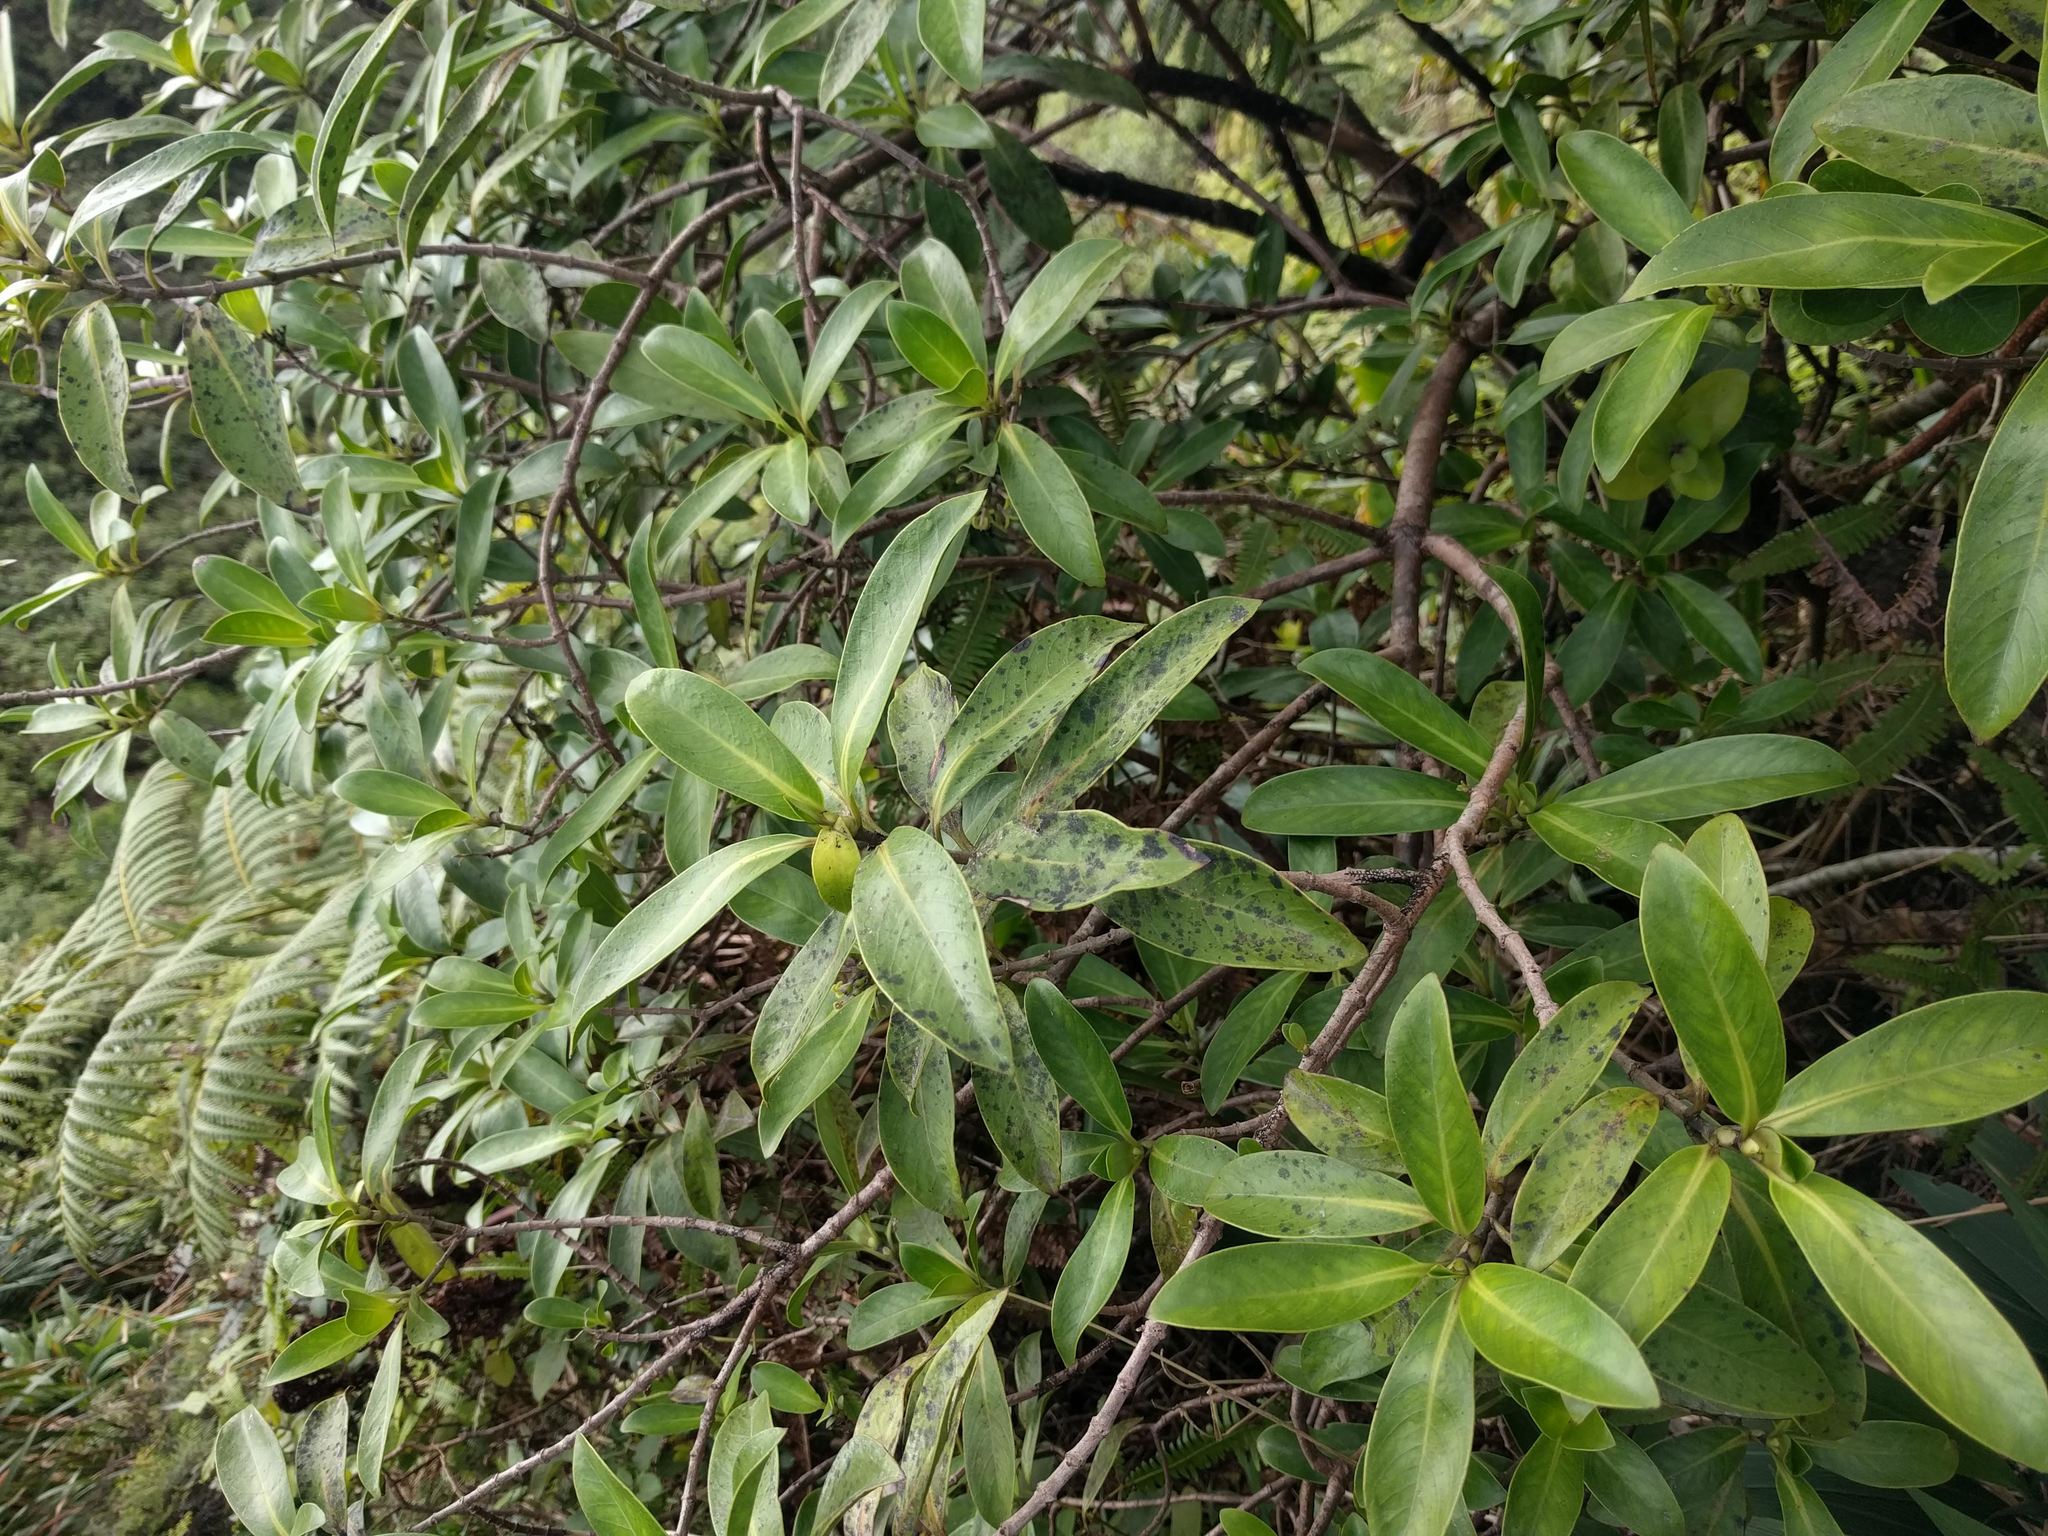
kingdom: Plantae
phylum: Tracheophyta
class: Magnoliopsida
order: Gentianales
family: Rubiaceae
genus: Kadua
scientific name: Kadua affinis
